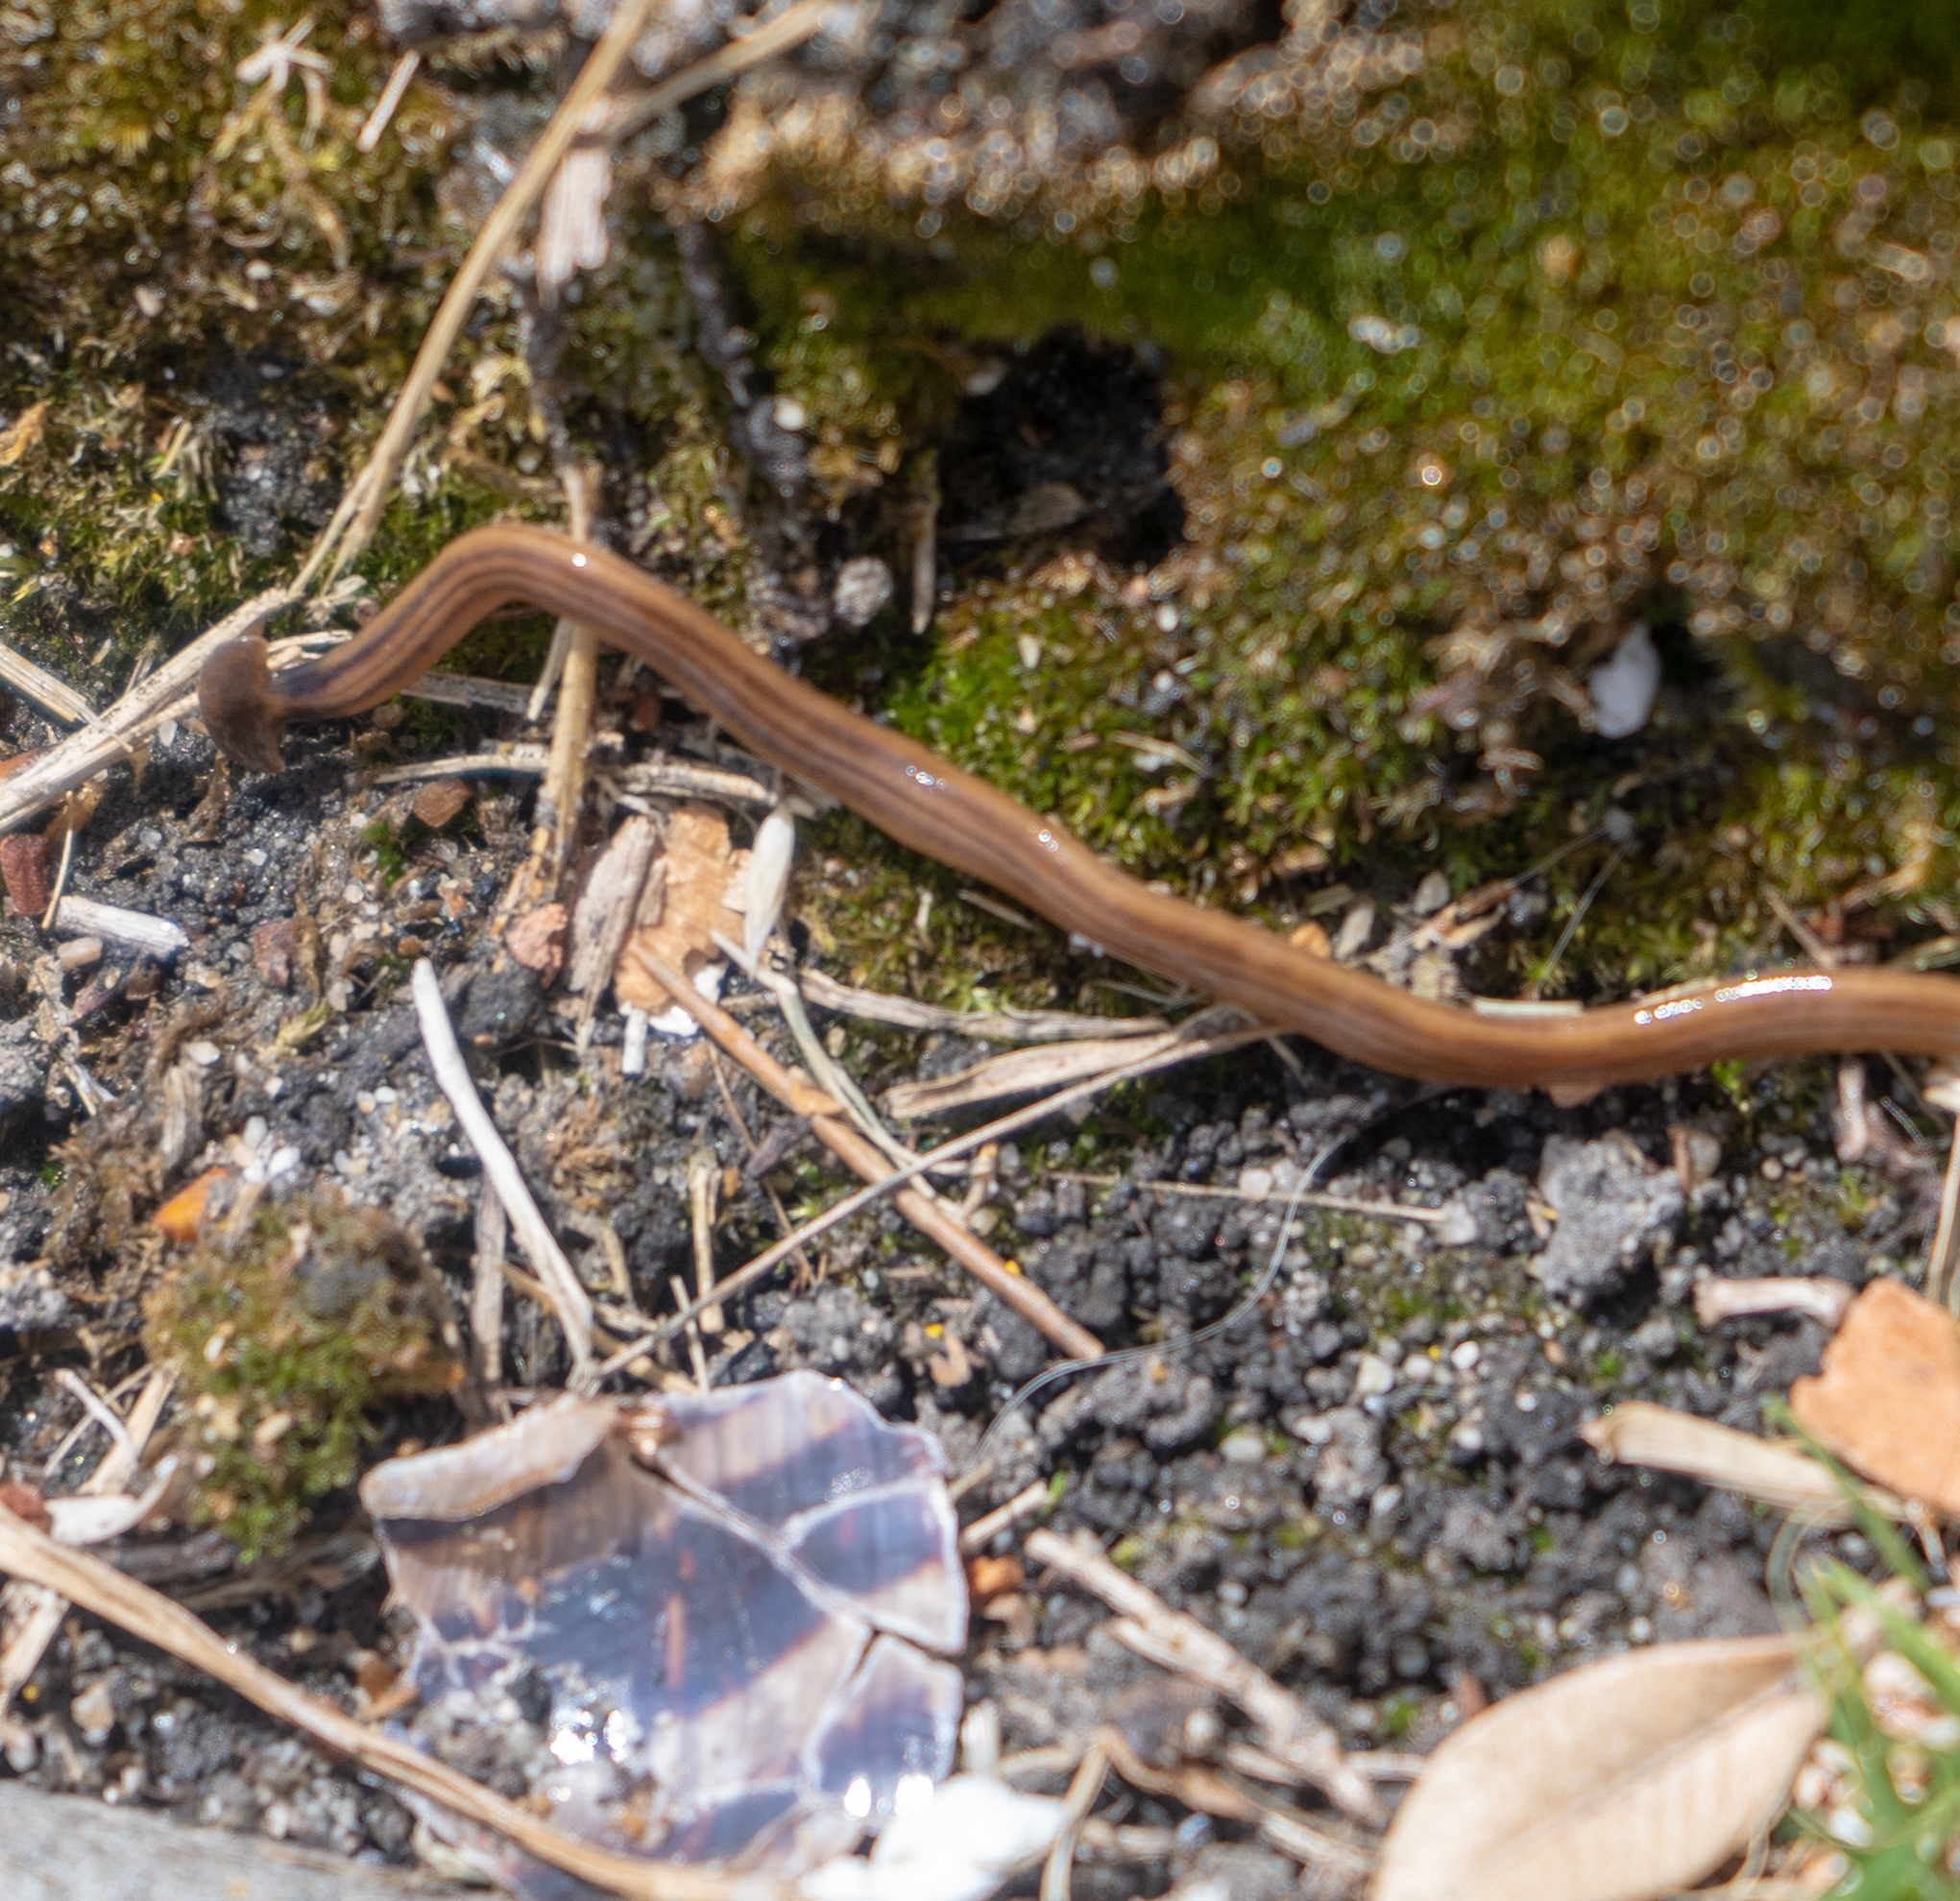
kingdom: Animalia
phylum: Platyhelminthes
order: Tricladida
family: Geoplanidae
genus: Bipalium
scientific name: Bipalium kewense
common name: Hammerhead flatworm
